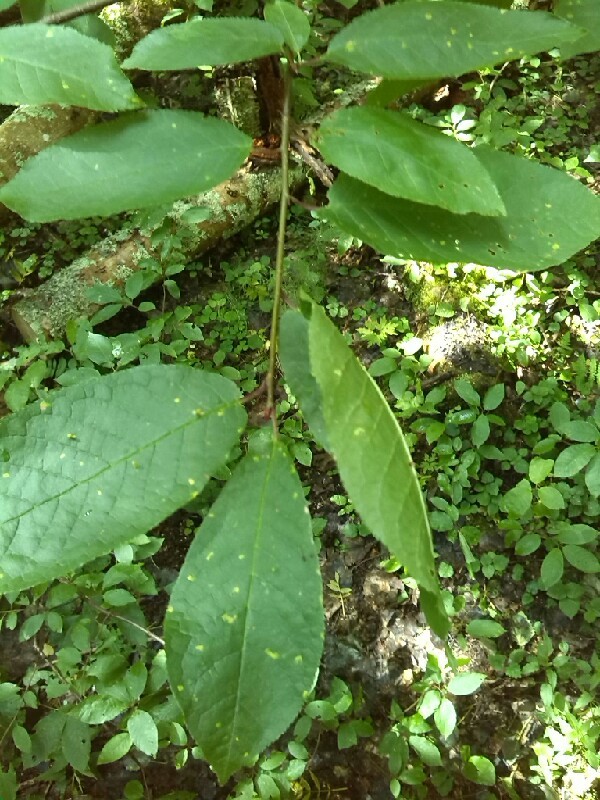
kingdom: Plantae
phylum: Tracheophyta
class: Magnoliopsida
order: Rosales
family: Rosaceae
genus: Prunus
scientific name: Prunus padus
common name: Bird cherry
